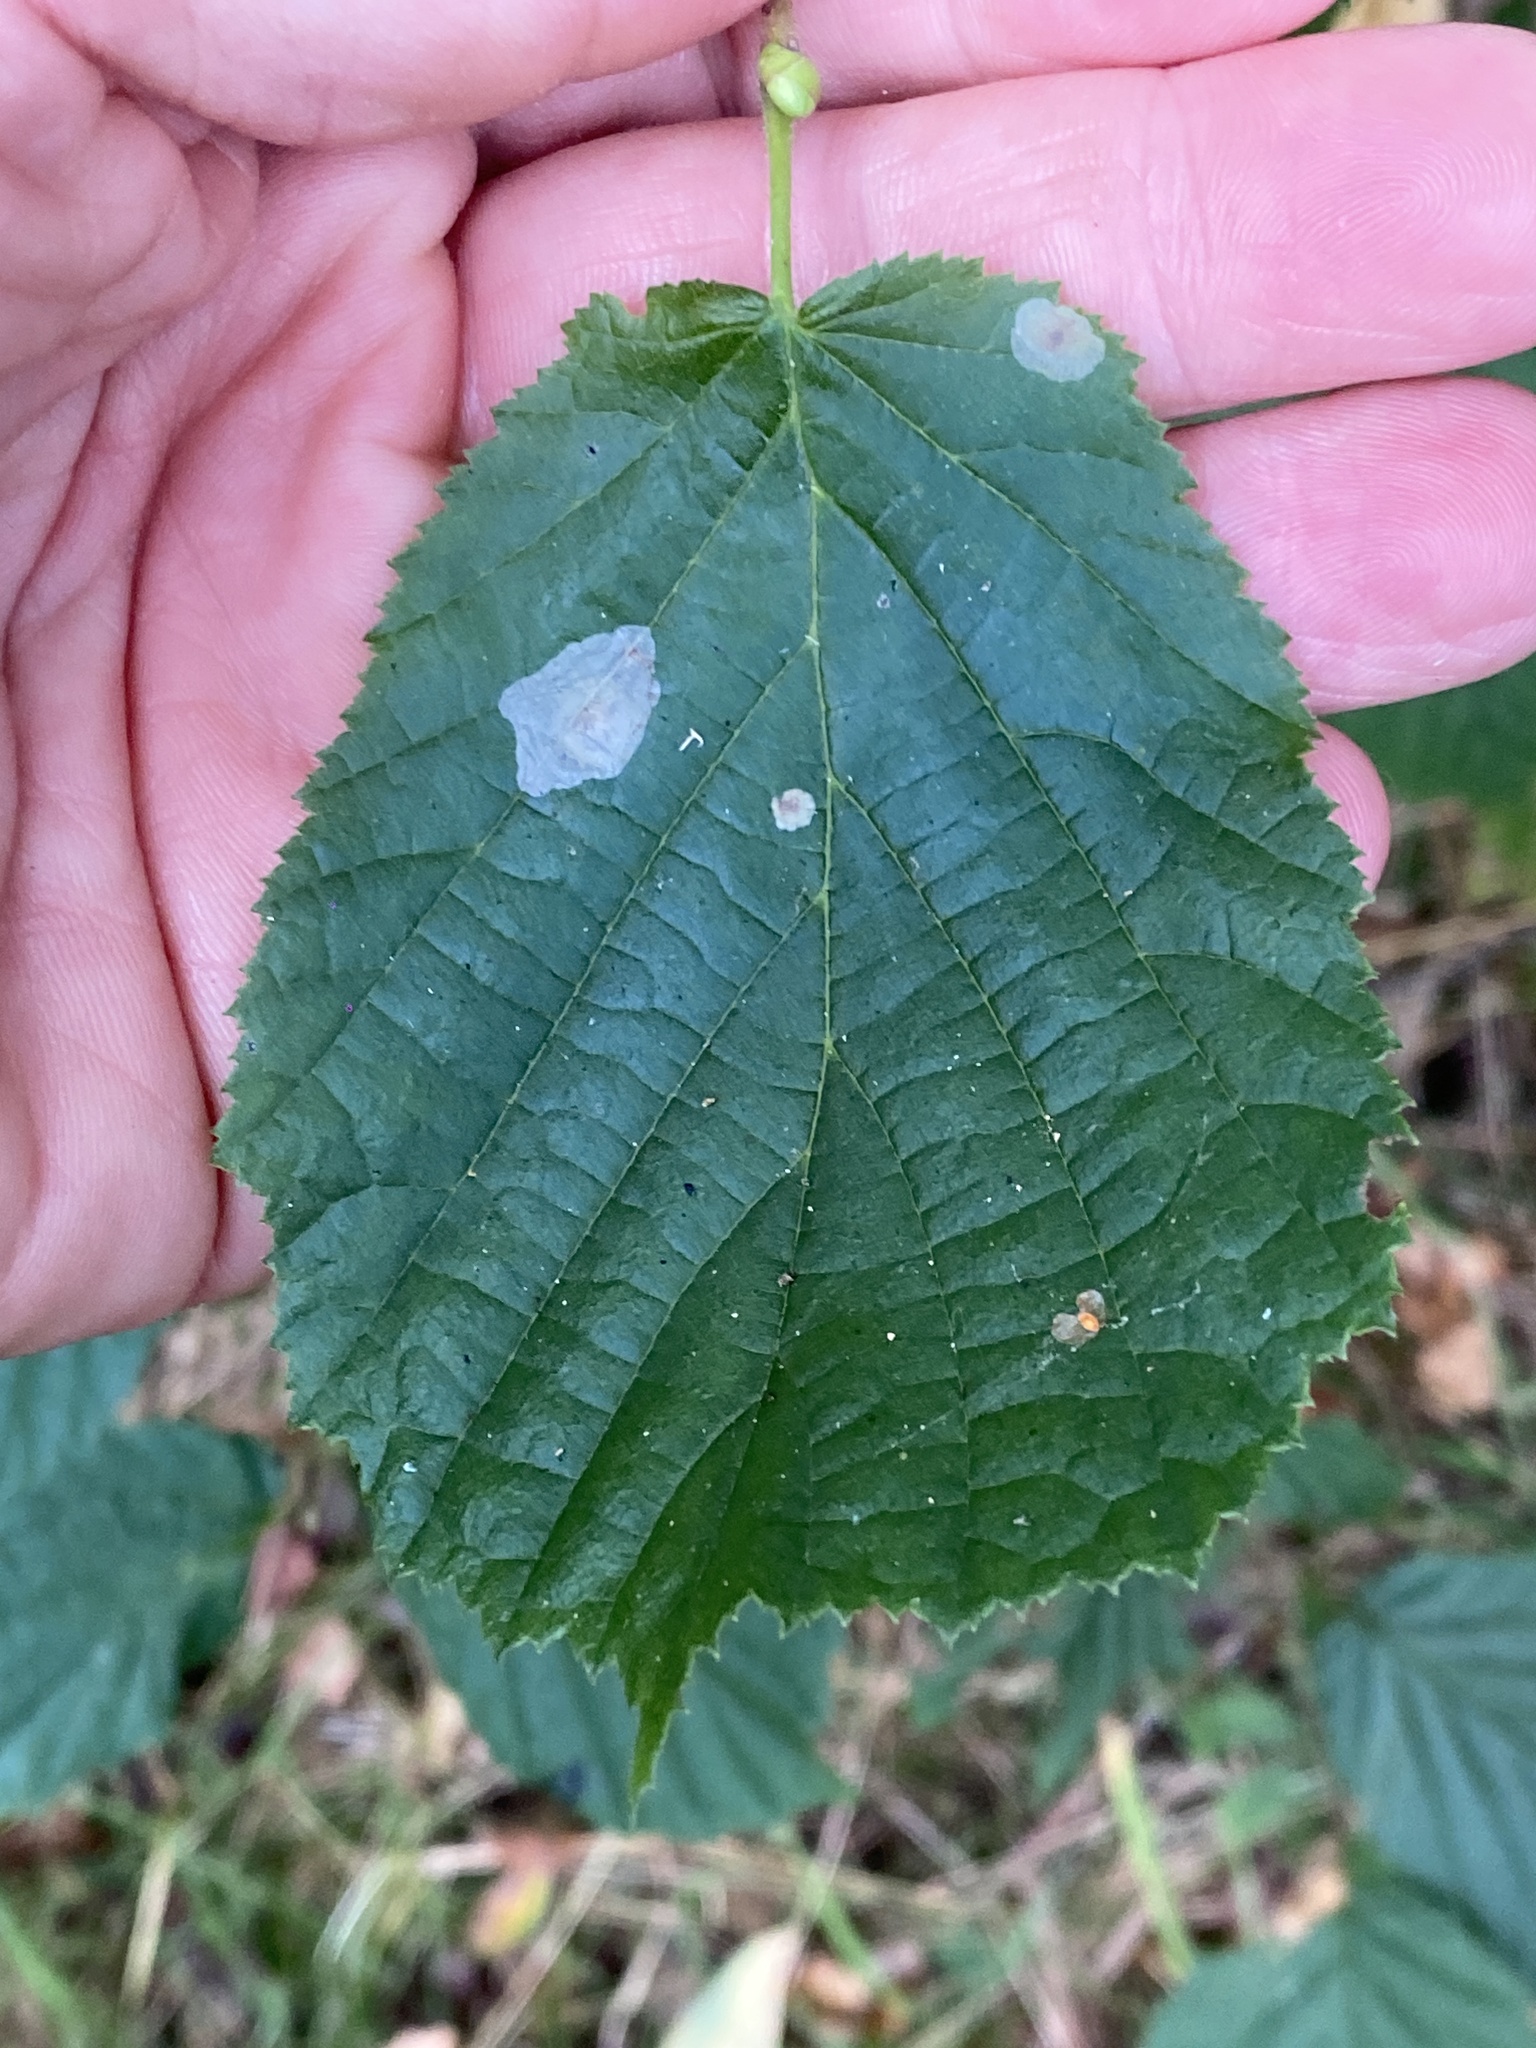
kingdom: Animalia
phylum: Arthropoda
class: Insecta
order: Lepidoptera
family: Gracillariidae
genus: Phyllonorycter
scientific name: Phyllonorycter coryli
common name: Nut-leaf blister moth
